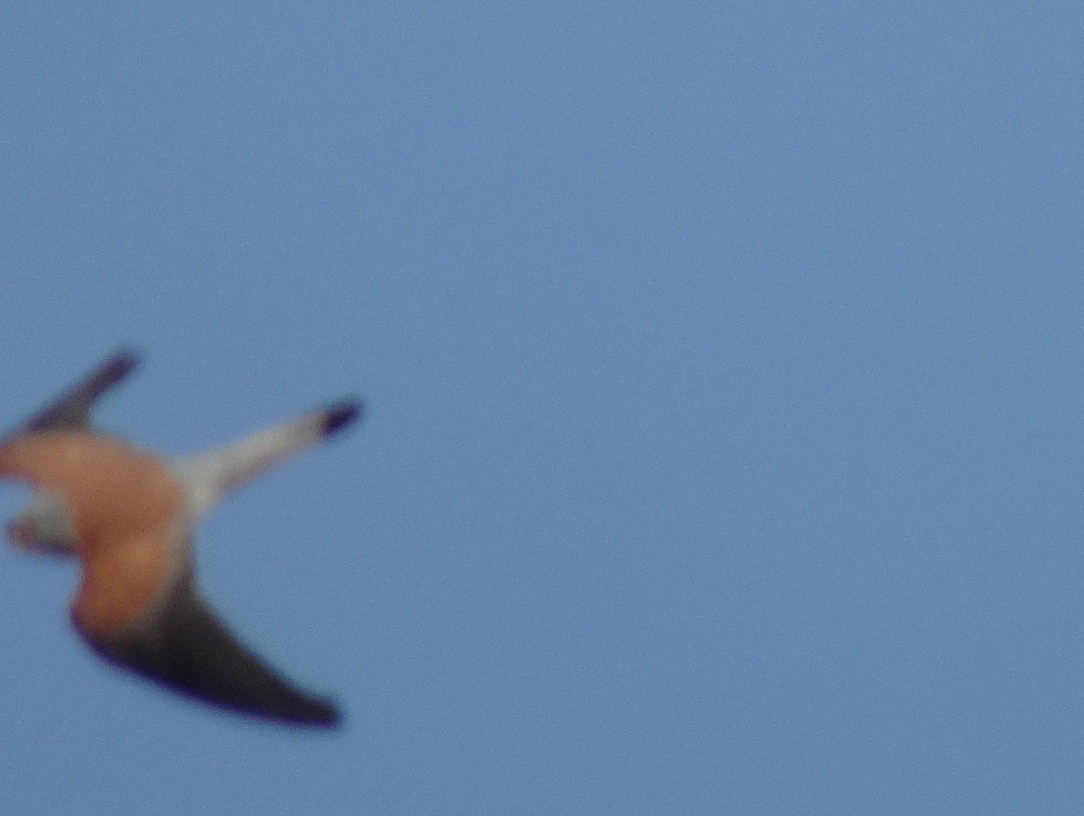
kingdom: Animalia
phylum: Chordata
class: Aves
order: Falconiformes
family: Falconidae
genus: Falco
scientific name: Falco naumanni
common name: Lesser kestrel
